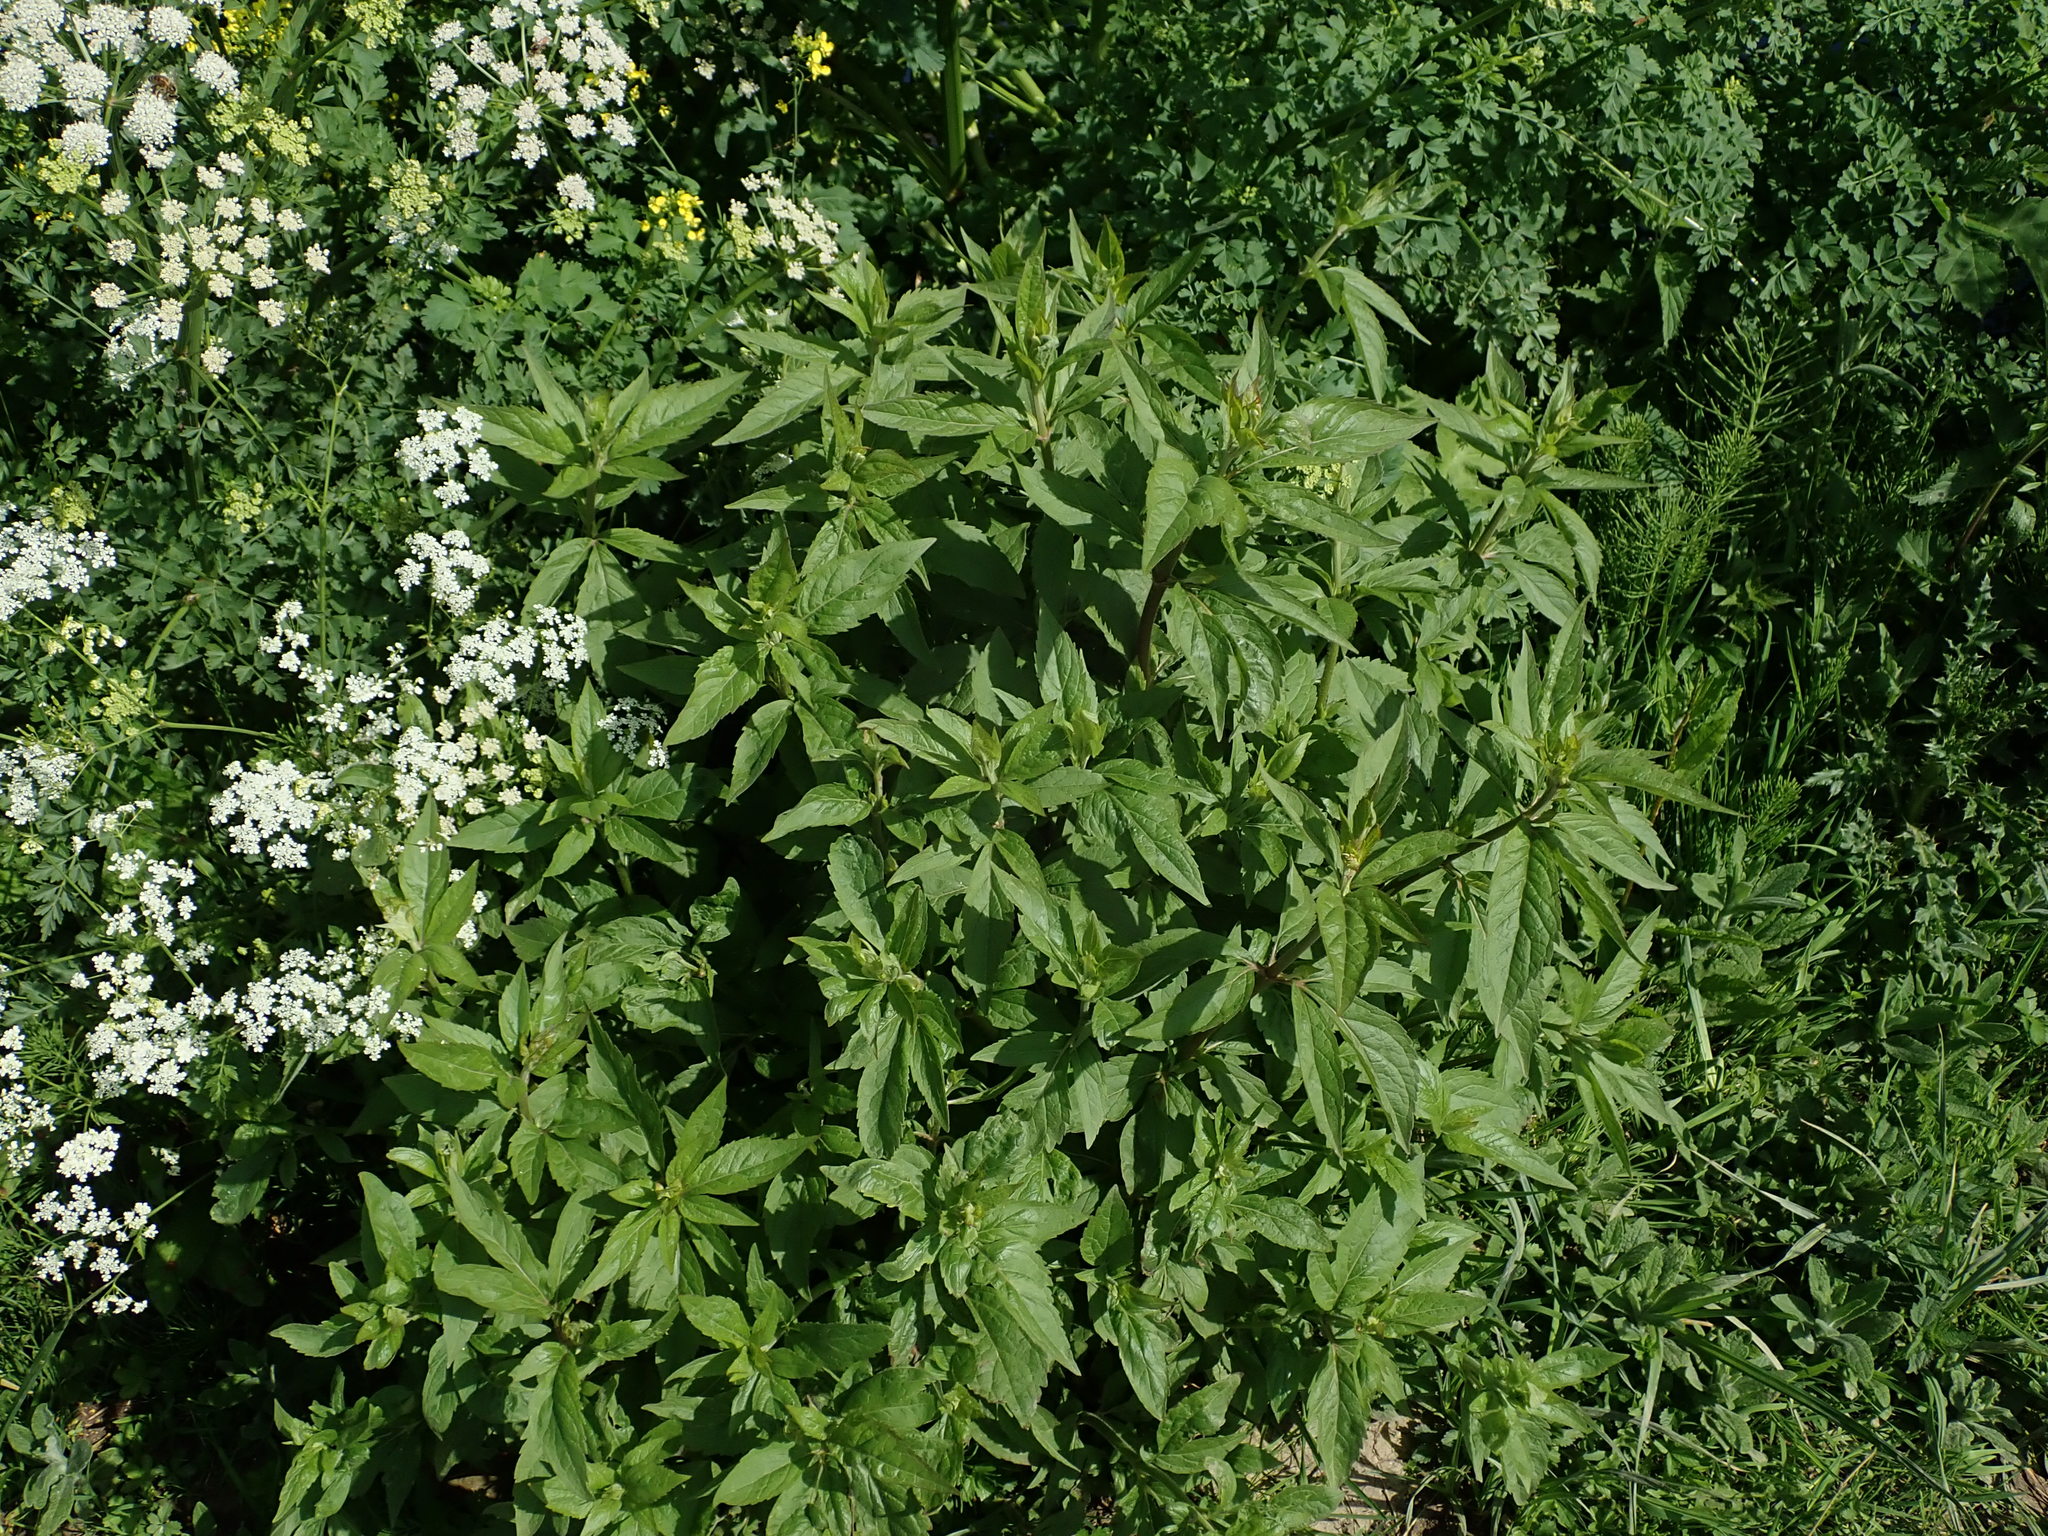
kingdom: Plantae
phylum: Tracheophyta
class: Magnoliopsida
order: Asterales
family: Asteraceae
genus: Eupatorium
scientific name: Eupatorium cannabinum
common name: Hemp-agrimony
